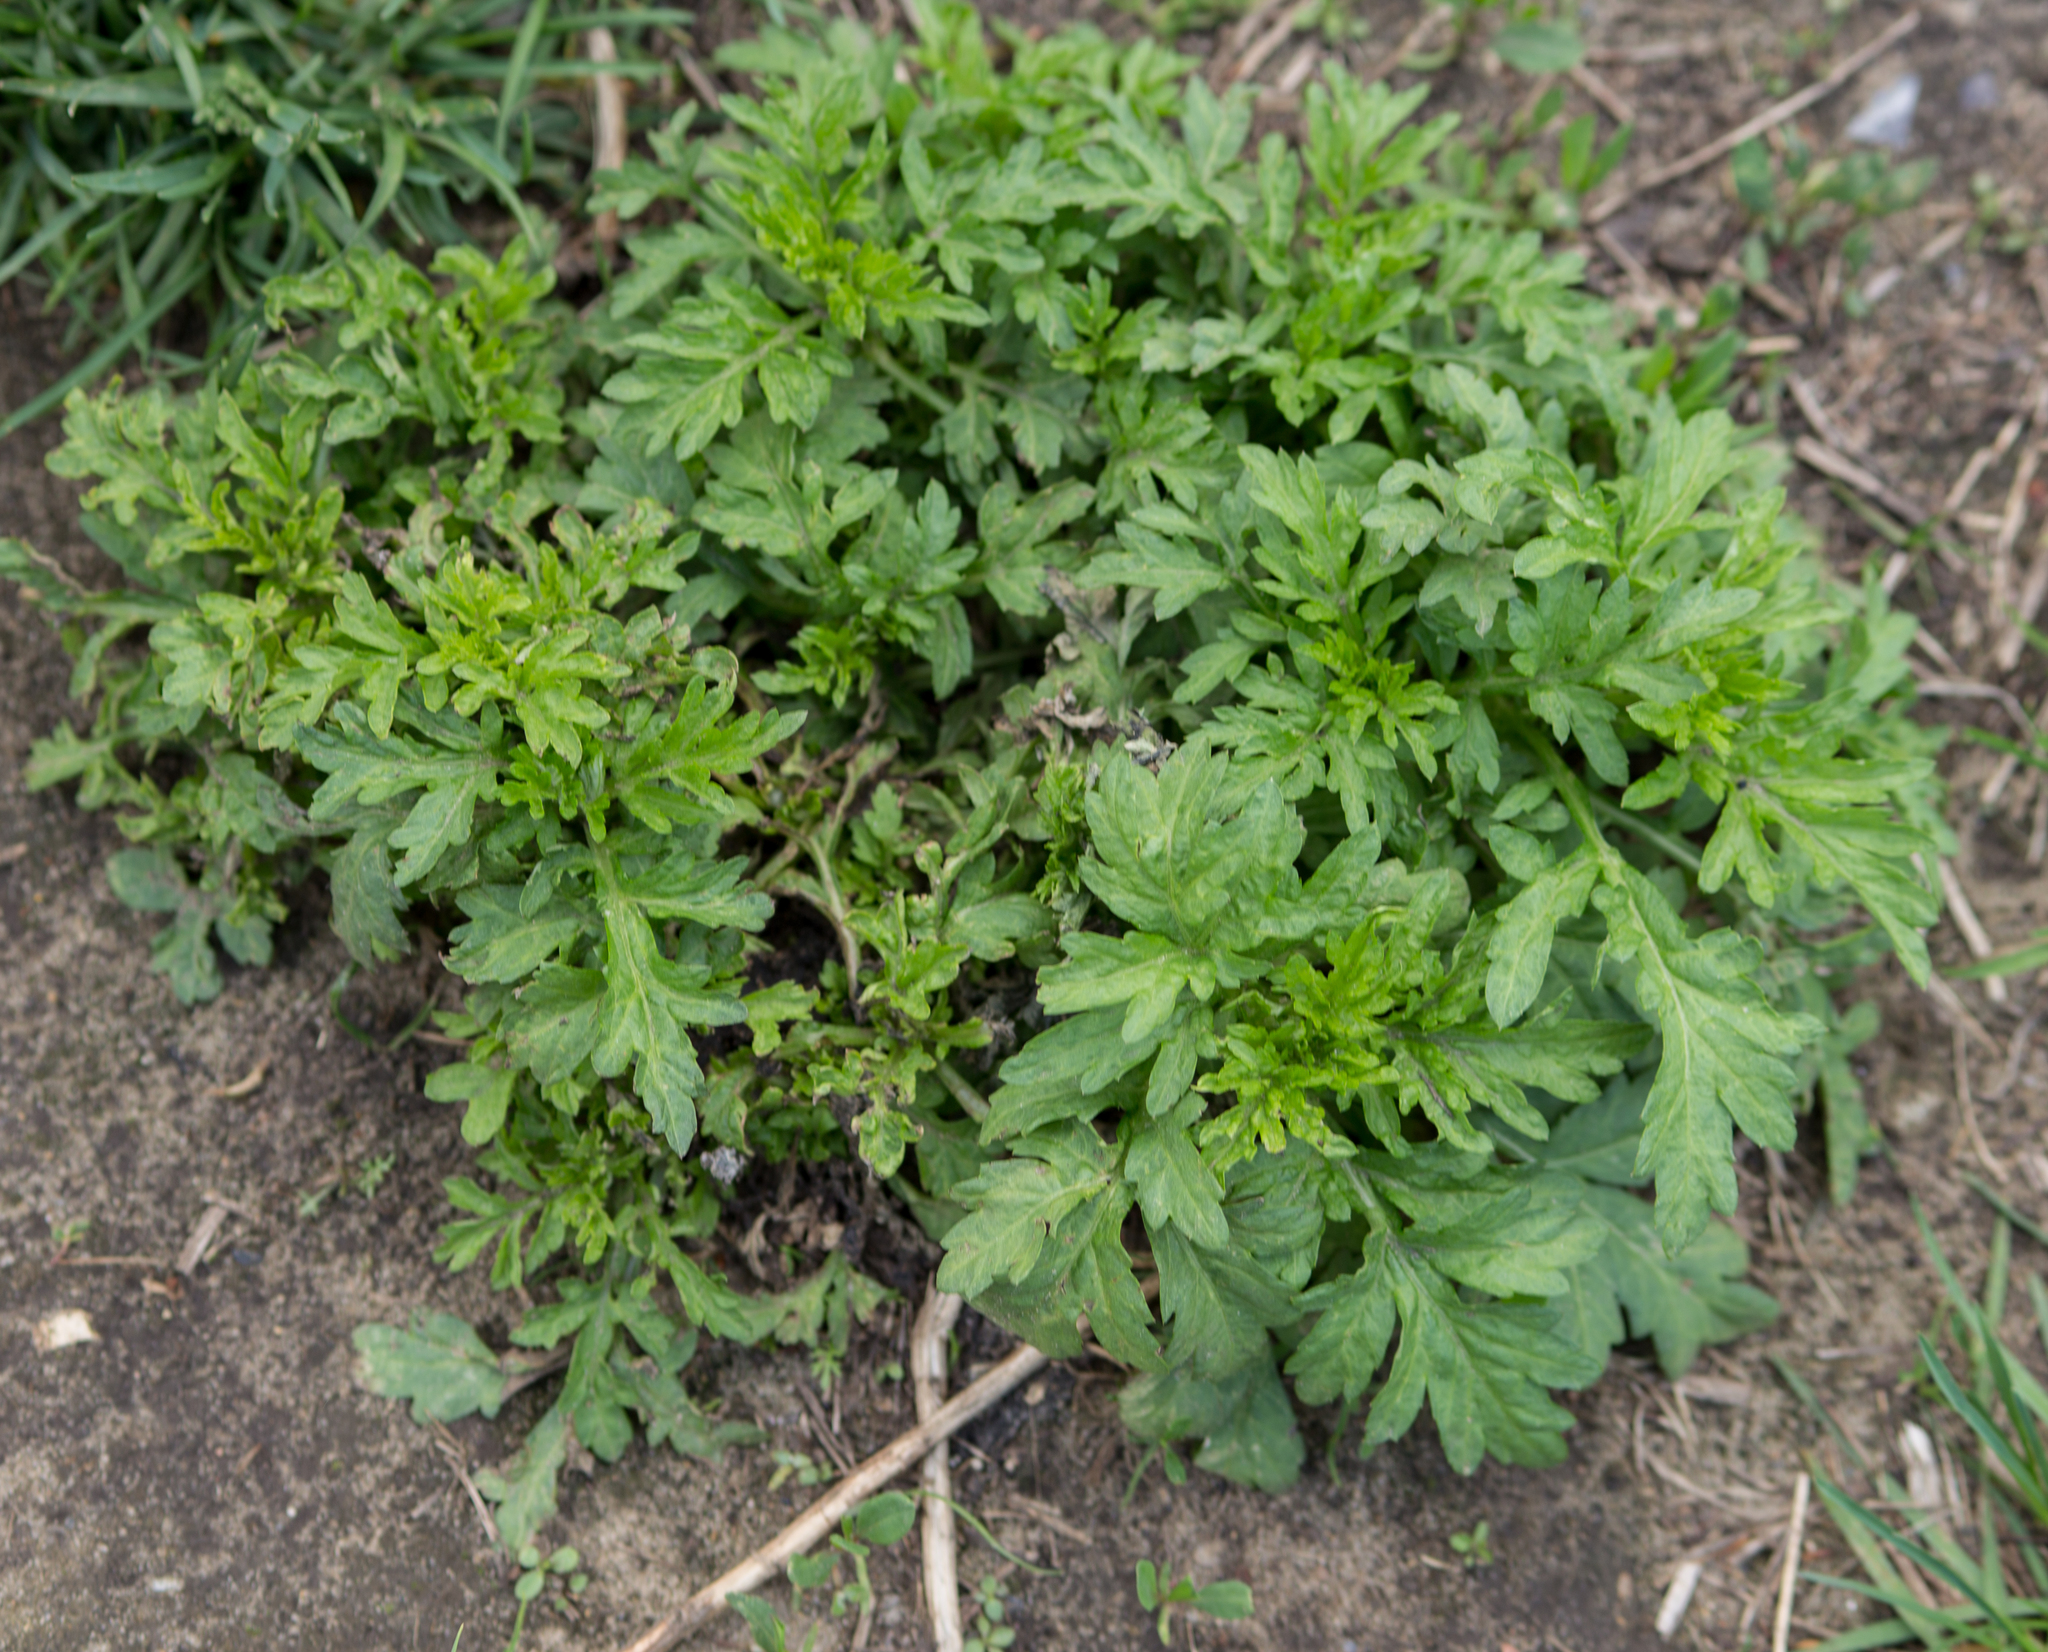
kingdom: Plantae
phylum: Tracheophyta
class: Magnoliopsida
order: Asterales
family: Asteraceae
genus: Artemisia
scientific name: Artemisia vulgaris
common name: Mugwort
